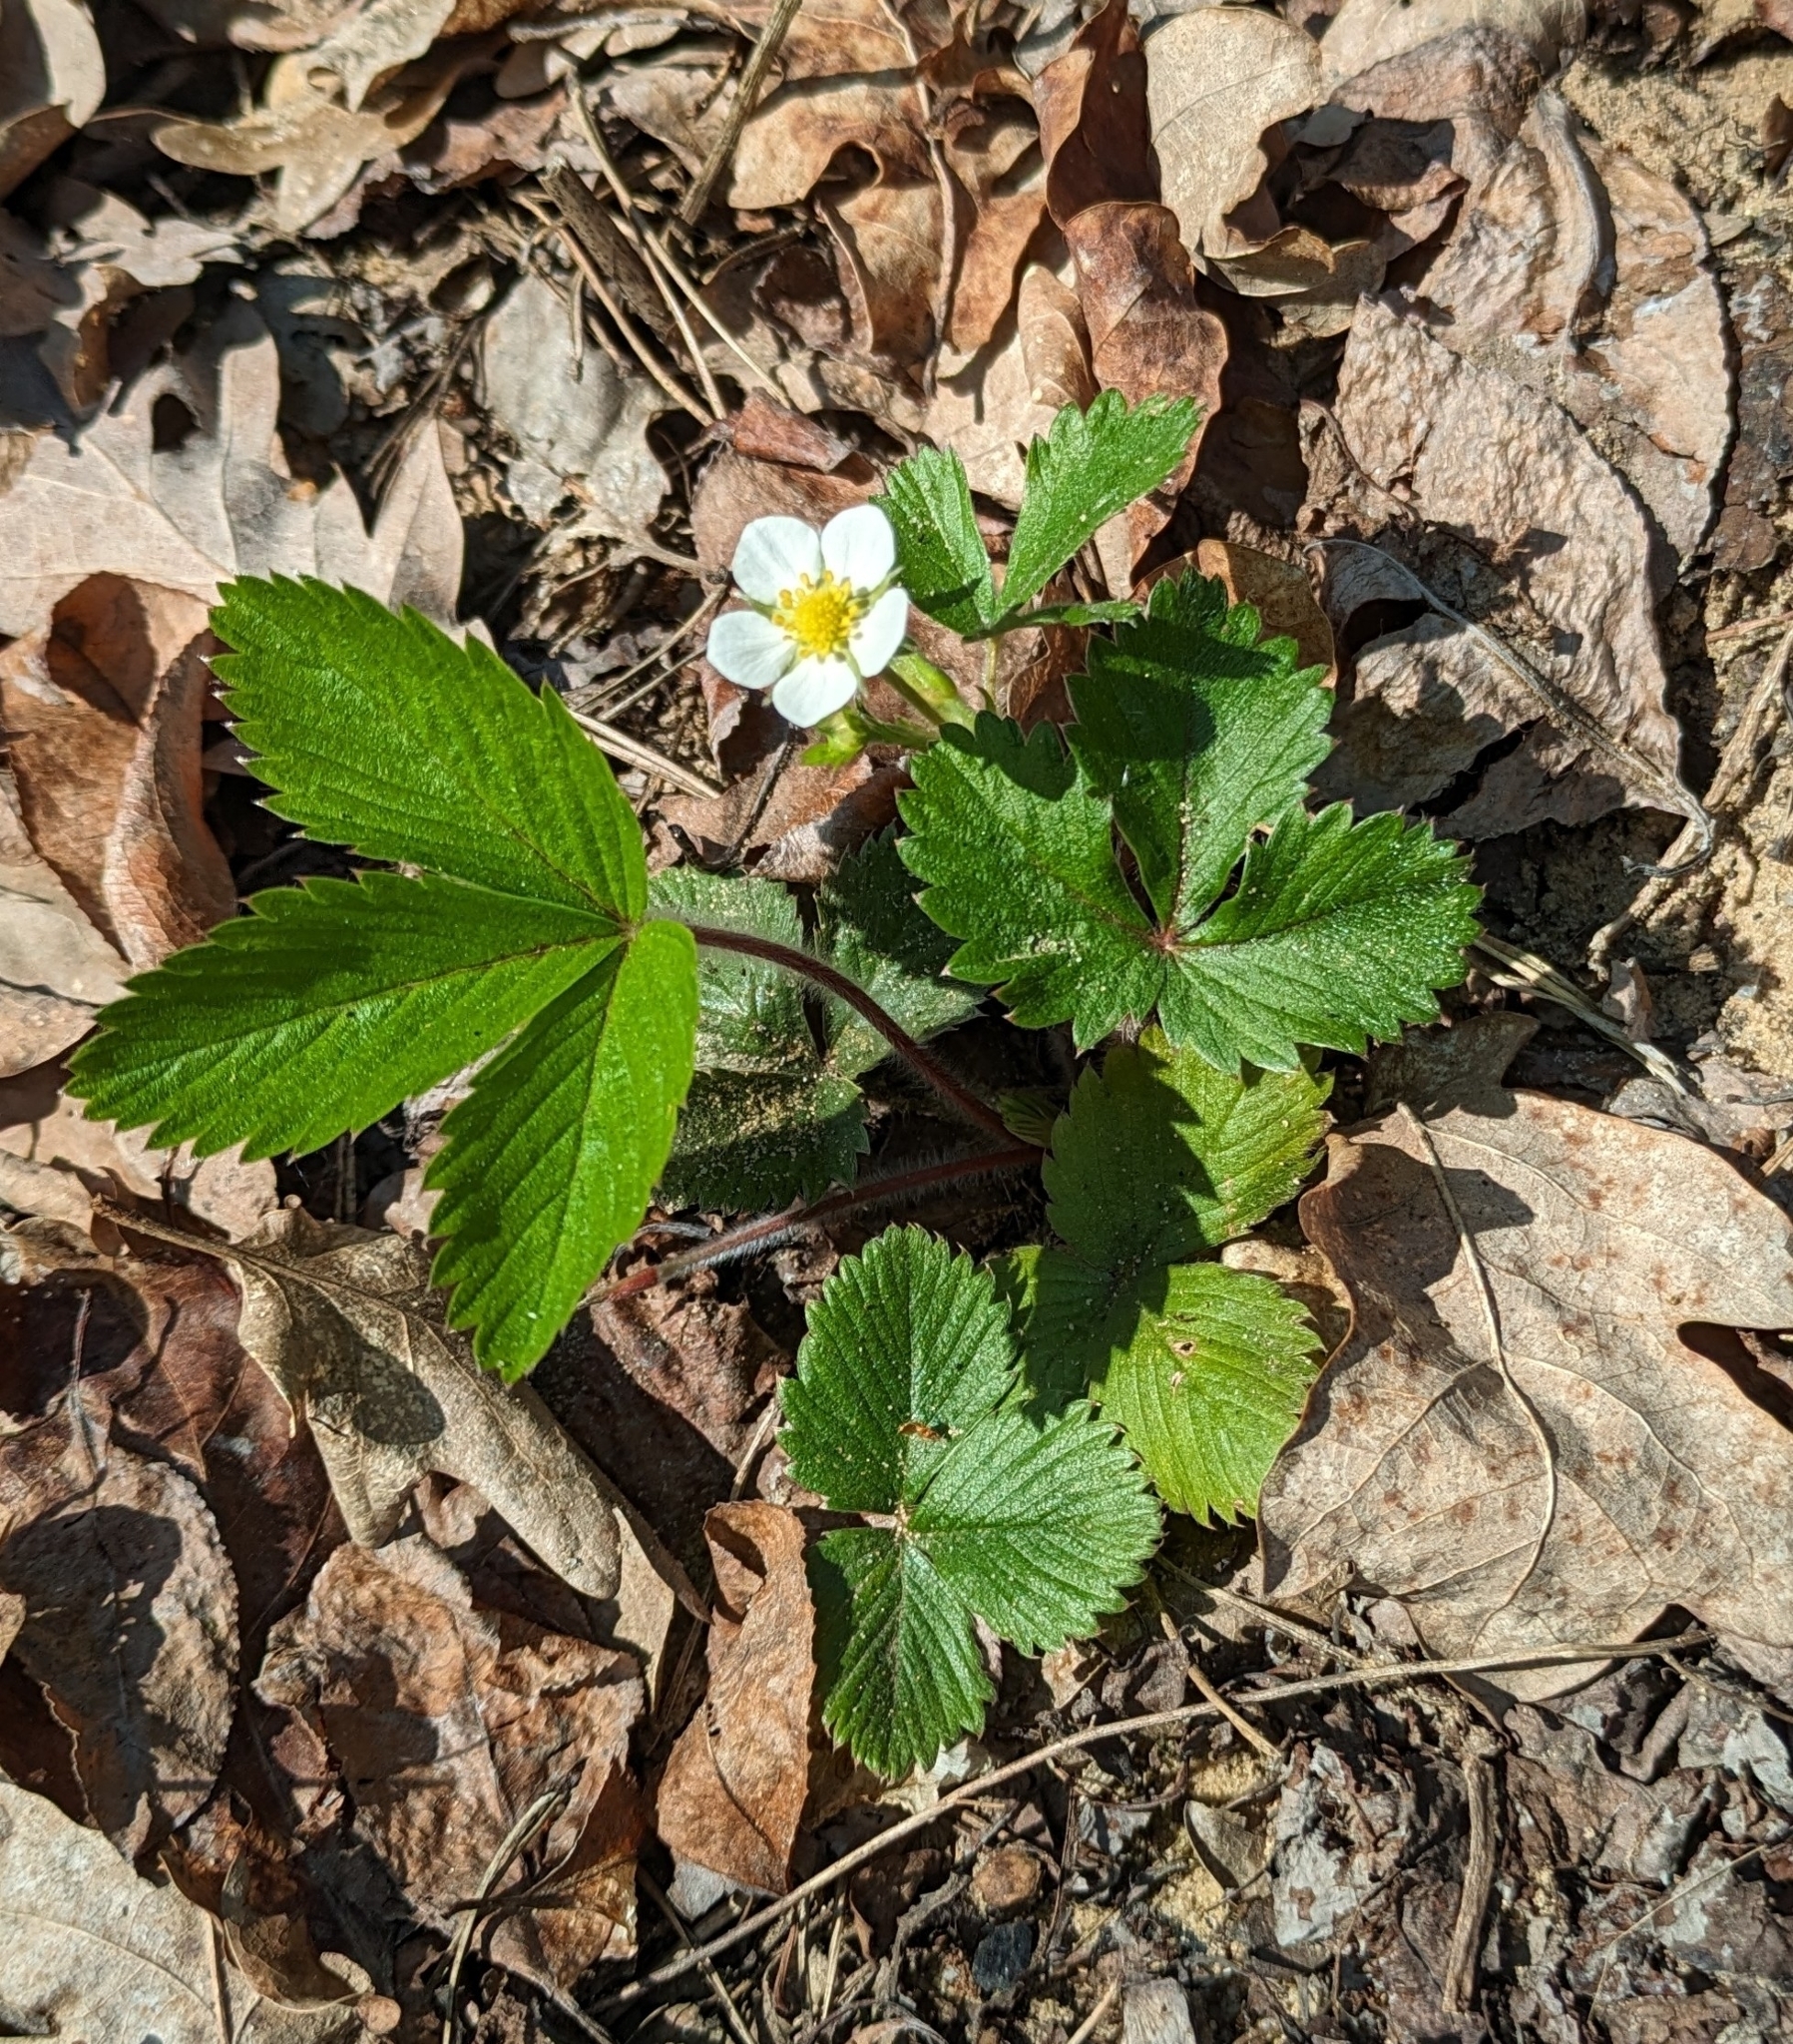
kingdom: Plantae
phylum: Tracheophyta
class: Magnoliopsida
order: Rosales
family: Rosaceae
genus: Fragaria
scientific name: Fragaria vesca
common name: Wild strawberry
